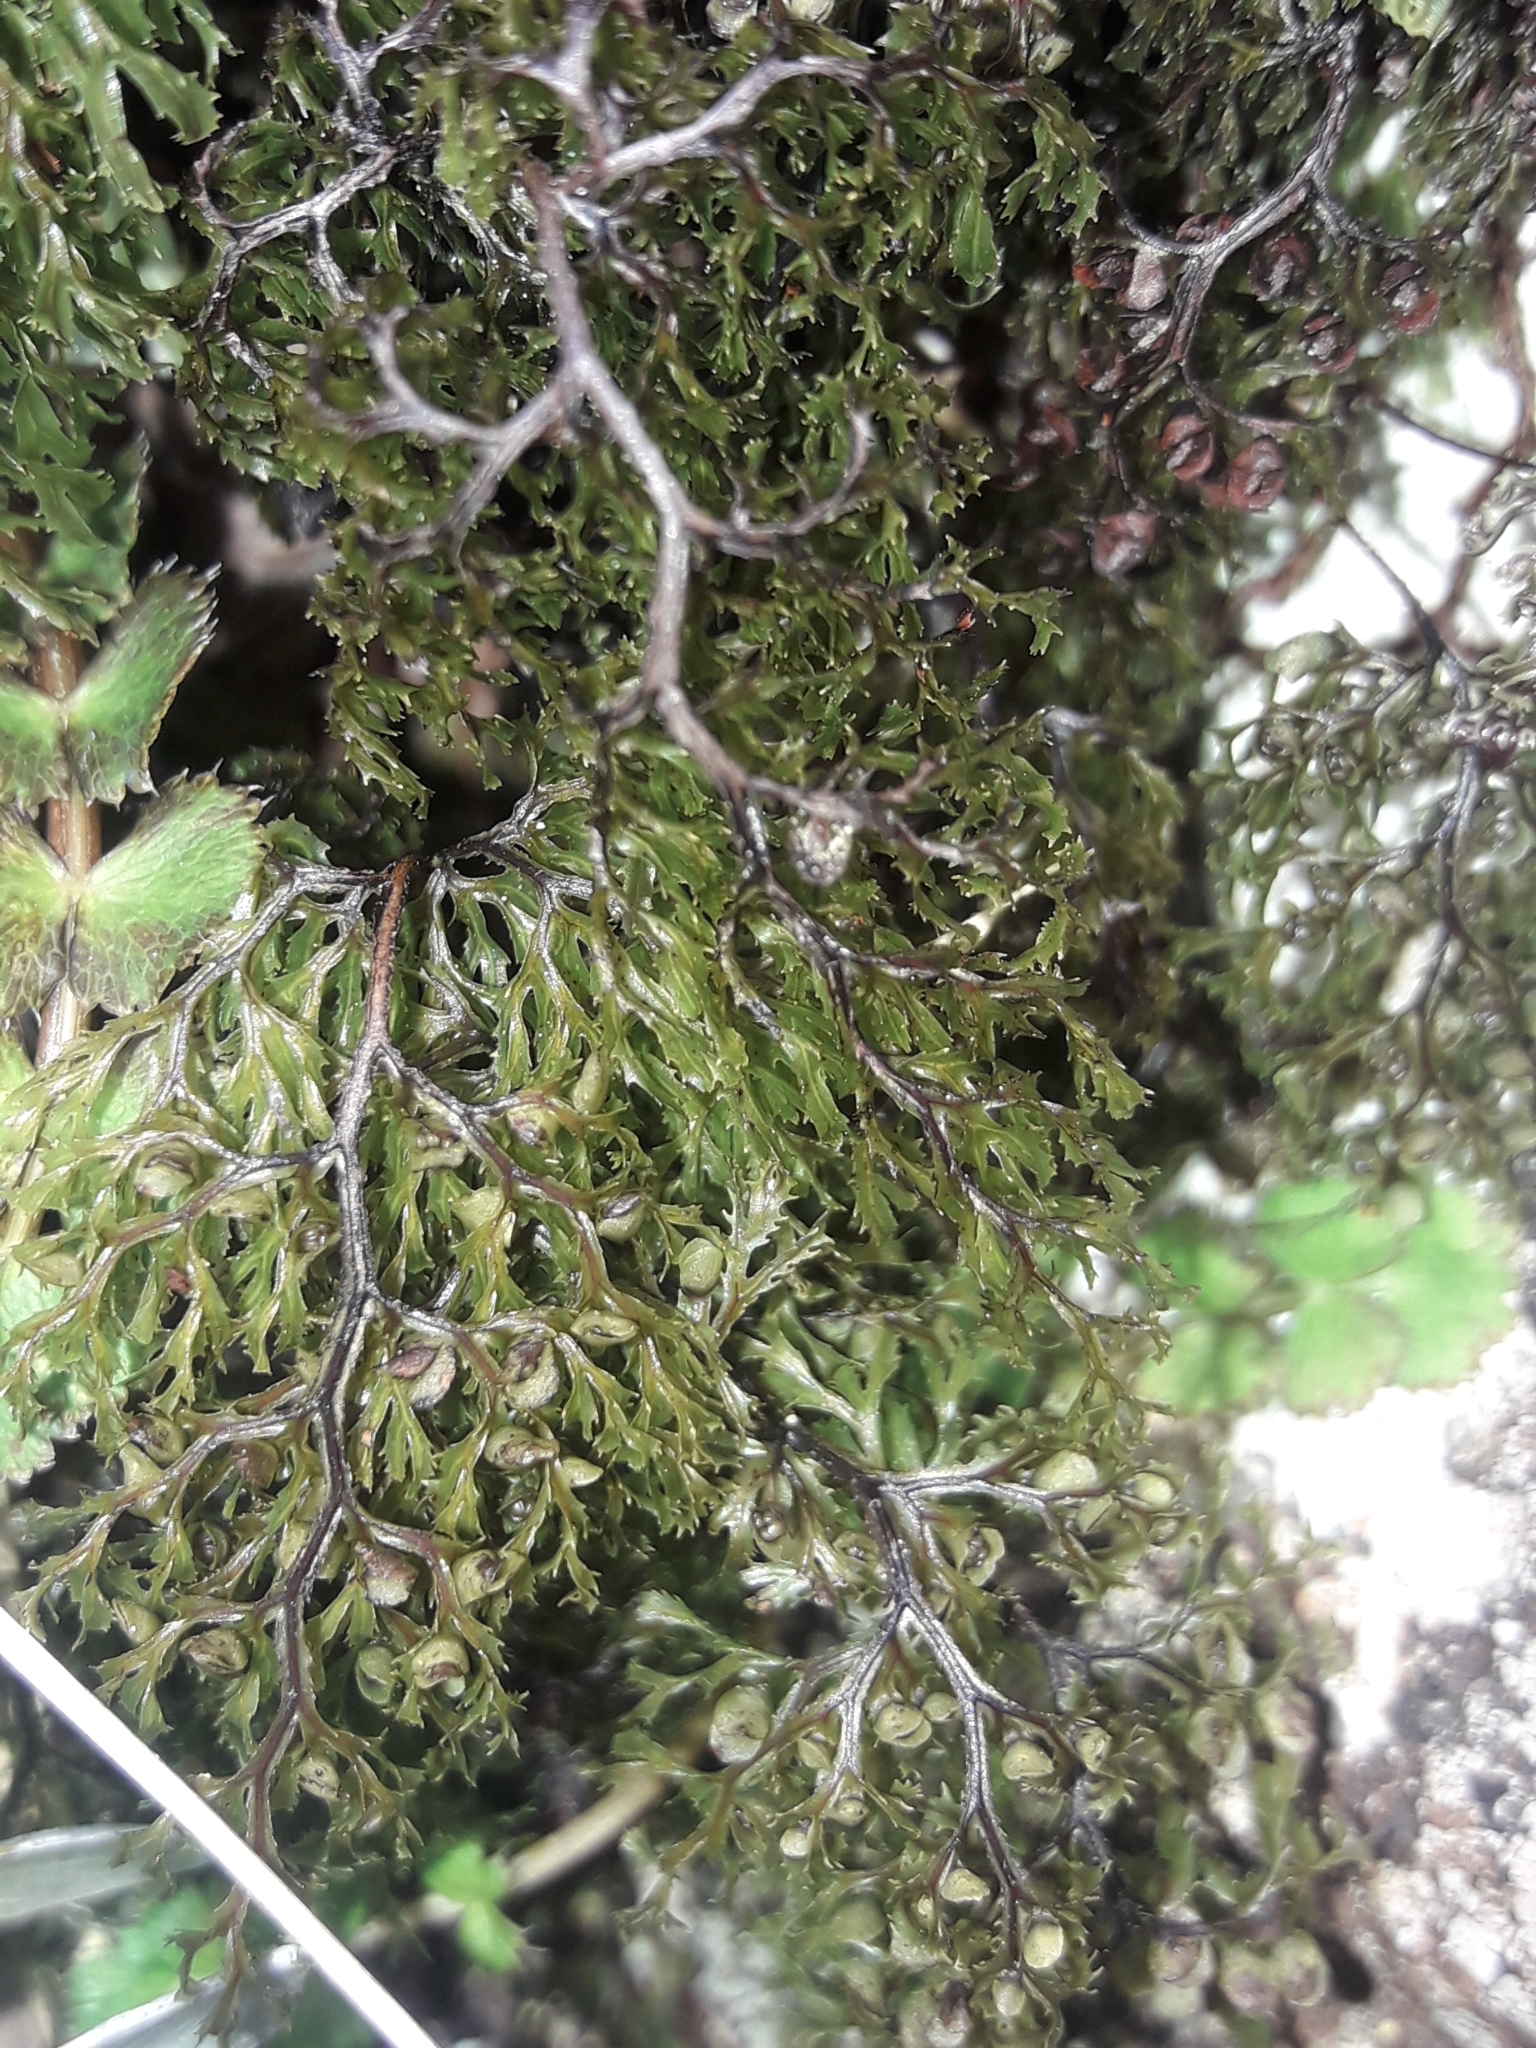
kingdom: Plantae
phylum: Tracheophyta
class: Polypodiopsida
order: Hymenophyllales
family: Hymenophyllaceae
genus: Hymenophyllum
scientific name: Hymenophyllum multifidum
